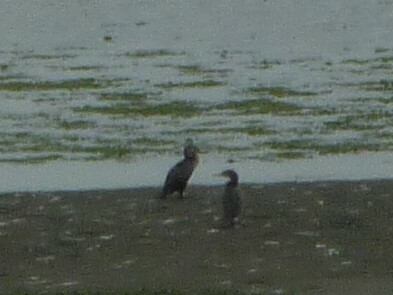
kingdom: Animalia
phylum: Chordata
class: Aves
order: Suliformes
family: Phalacrocoracidae
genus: Phalacrocorax
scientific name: Phalacrocorax brasilianus
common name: Neotropic cormorant
